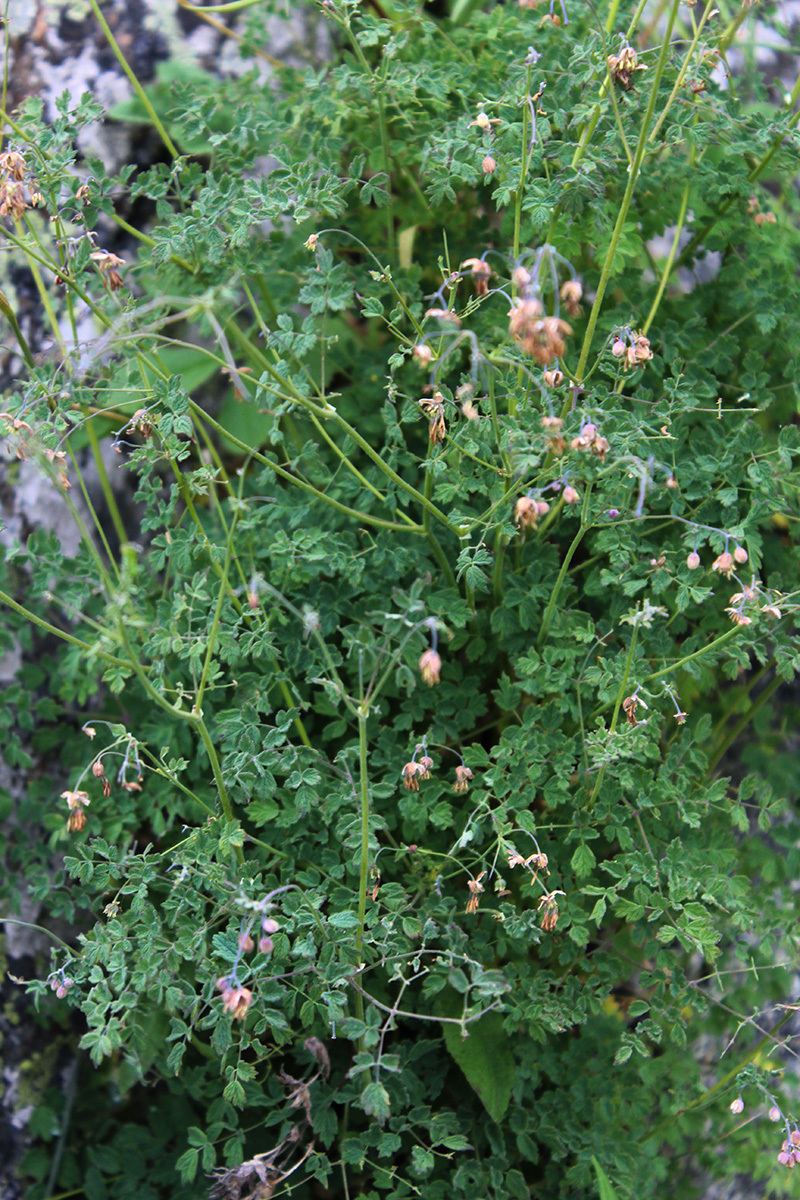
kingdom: Plantae
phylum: Tracheophyta
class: Magnoliopsida
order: Ranunculales
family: Ranunculaceae
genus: Thalictrum
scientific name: Thalictrum foetidum
